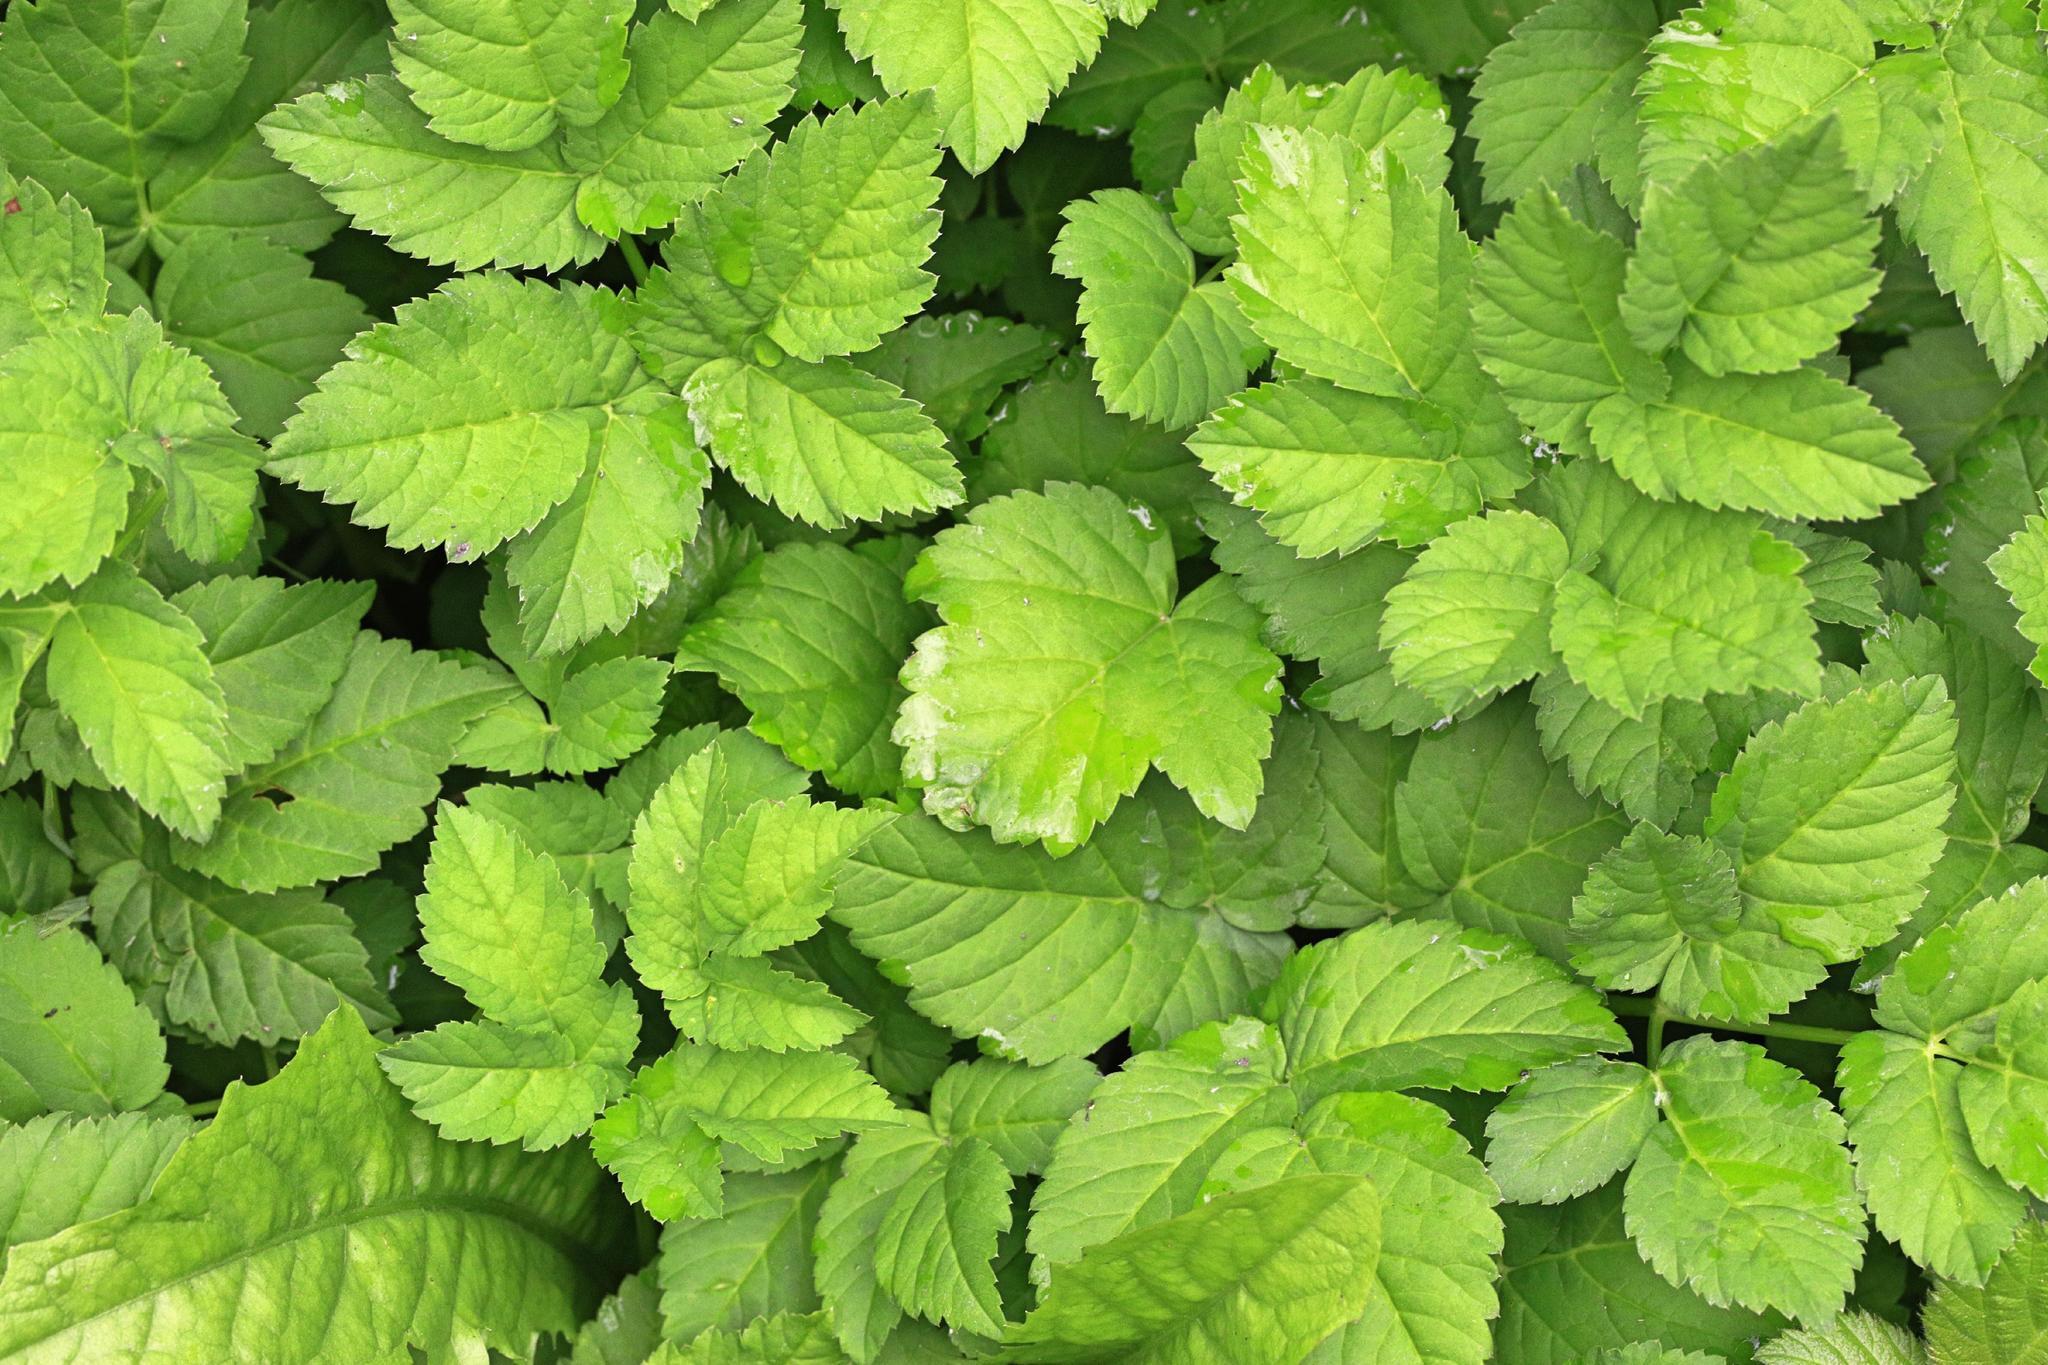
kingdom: Plantae
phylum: Tracheophyta
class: Magnoliopsida
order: Apiales
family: Apiaceae
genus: Aegopodium
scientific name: Aegopodium podagraria
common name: Ground-elder
